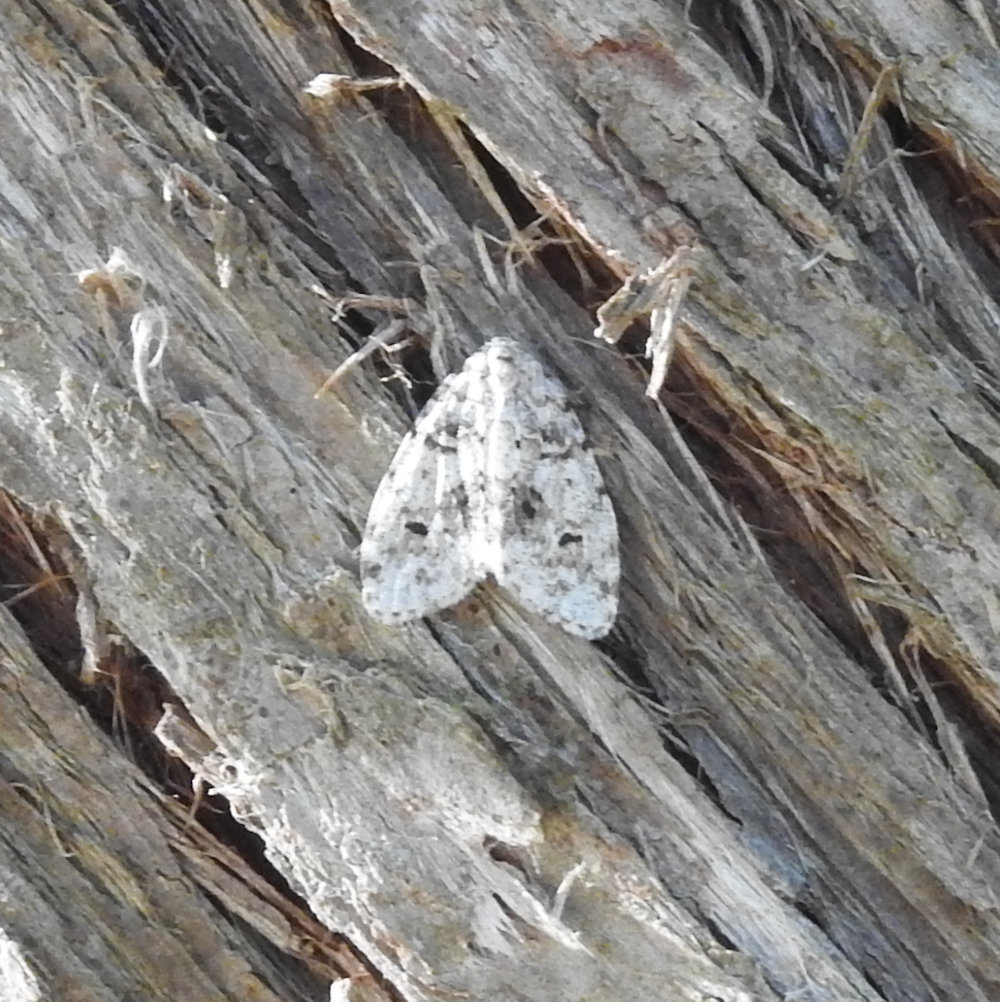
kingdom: Animalia
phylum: Arthropoda
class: Insecta
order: Lepidoptera
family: Erebidae
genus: Clemensia
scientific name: Clemensia albata
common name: Little white lichen moth
